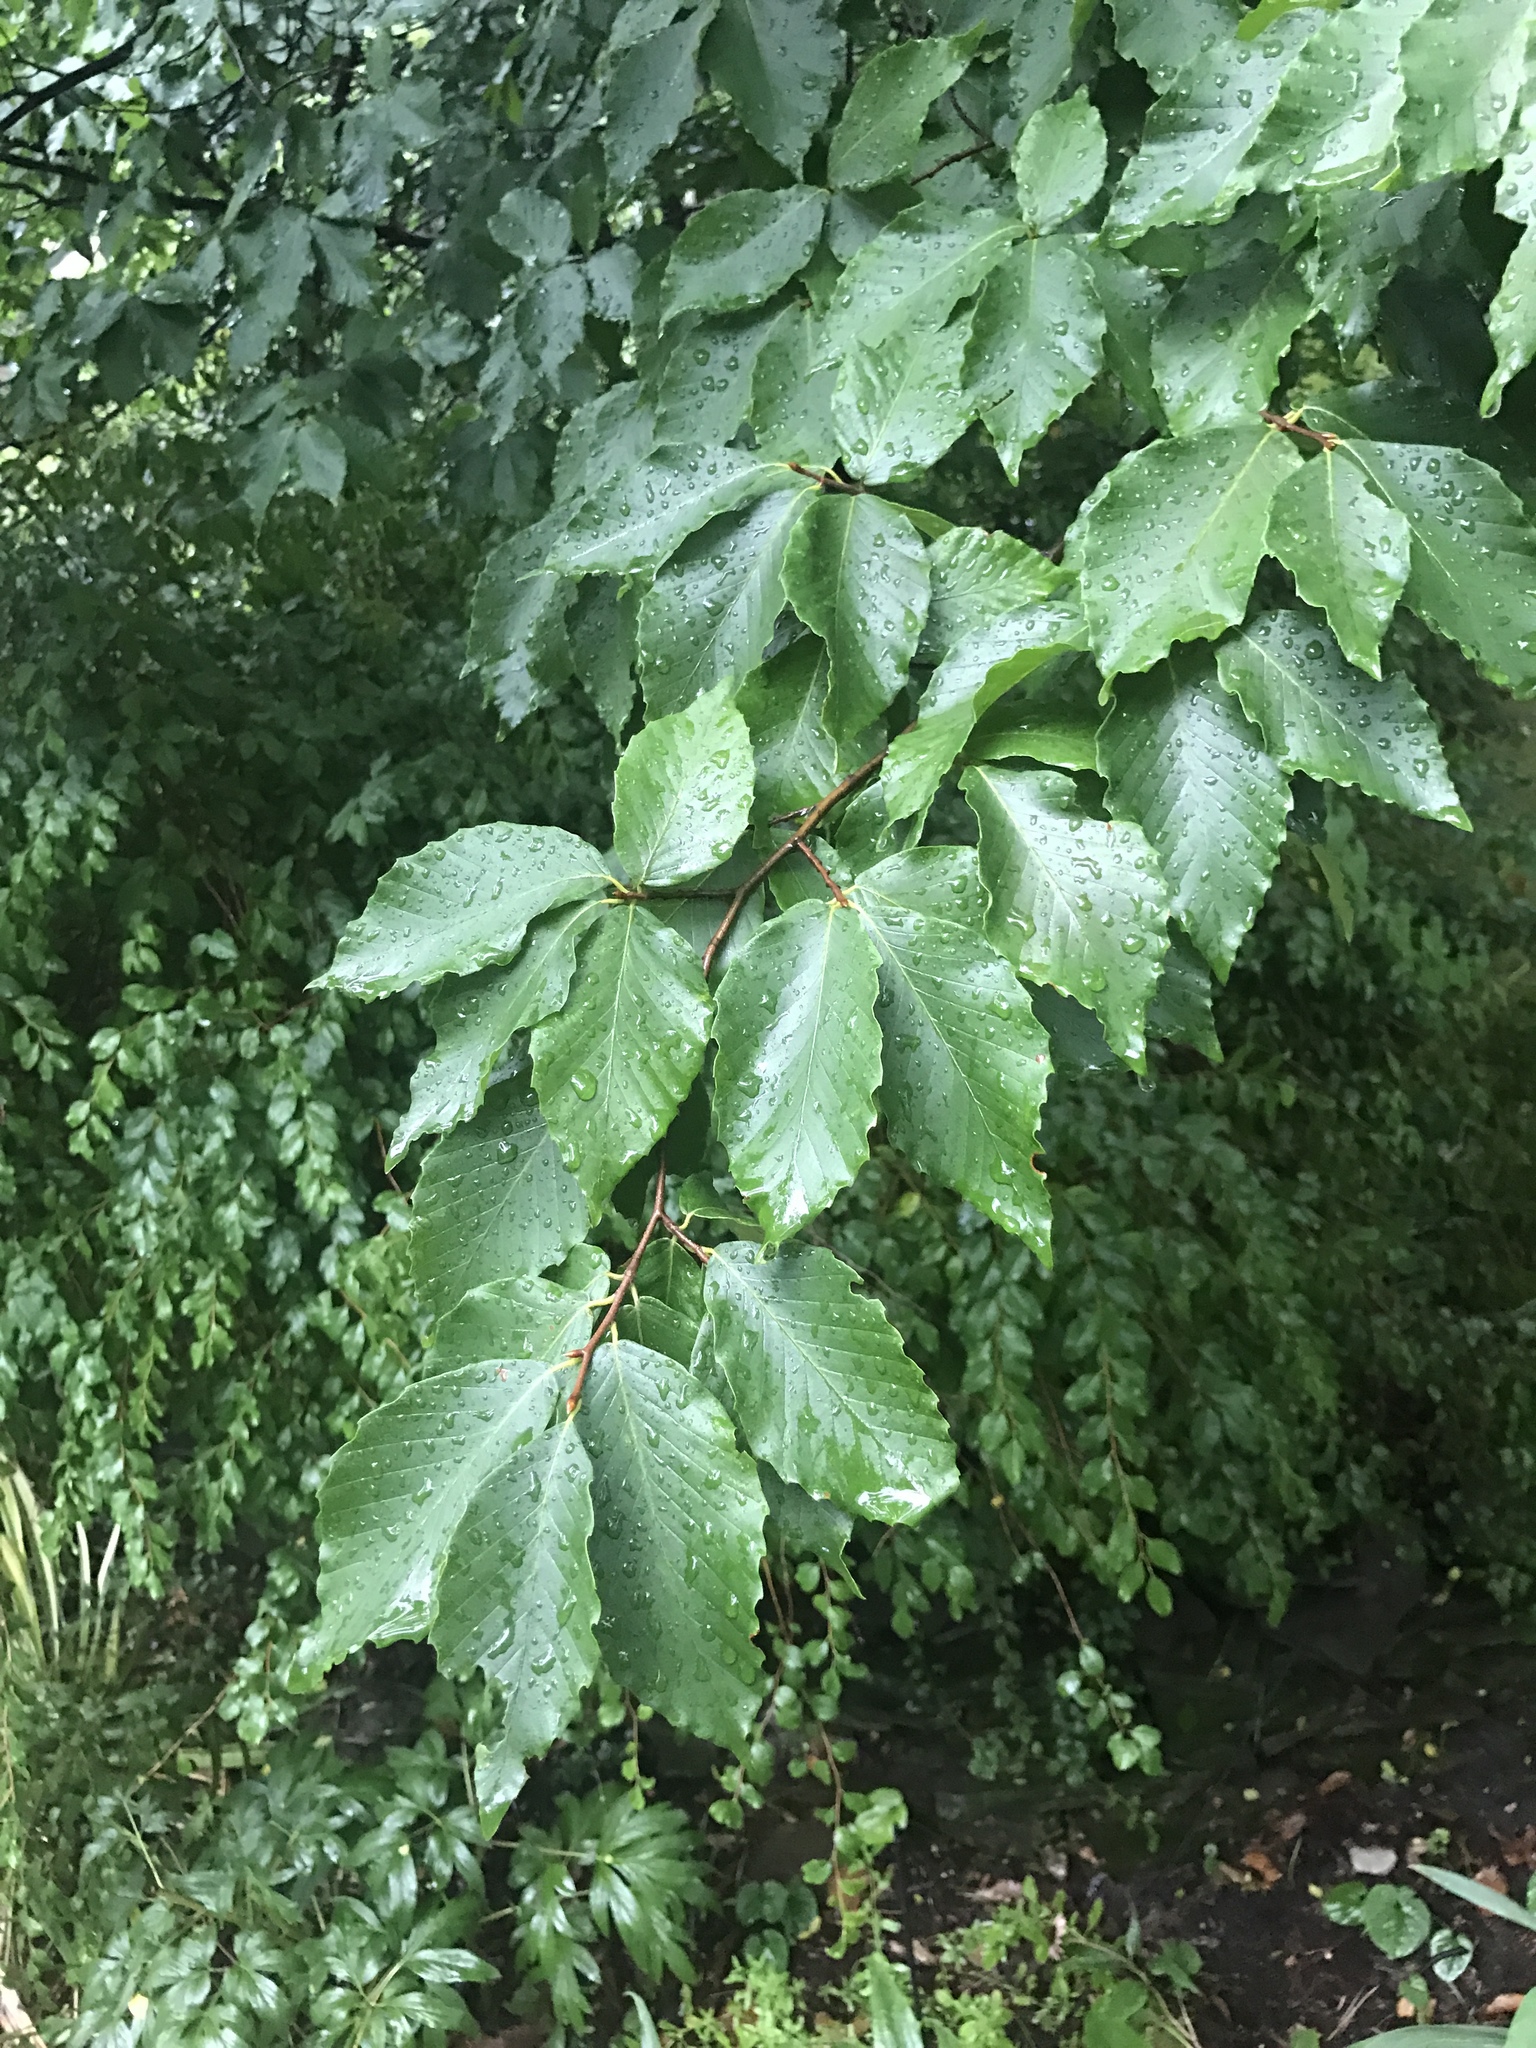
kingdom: Plantae
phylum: Tracheophyta
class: Magnoliopsida
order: Fagales
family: Fagaceae
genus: Fagus
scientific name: Fagus grandifolia
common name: American beech
